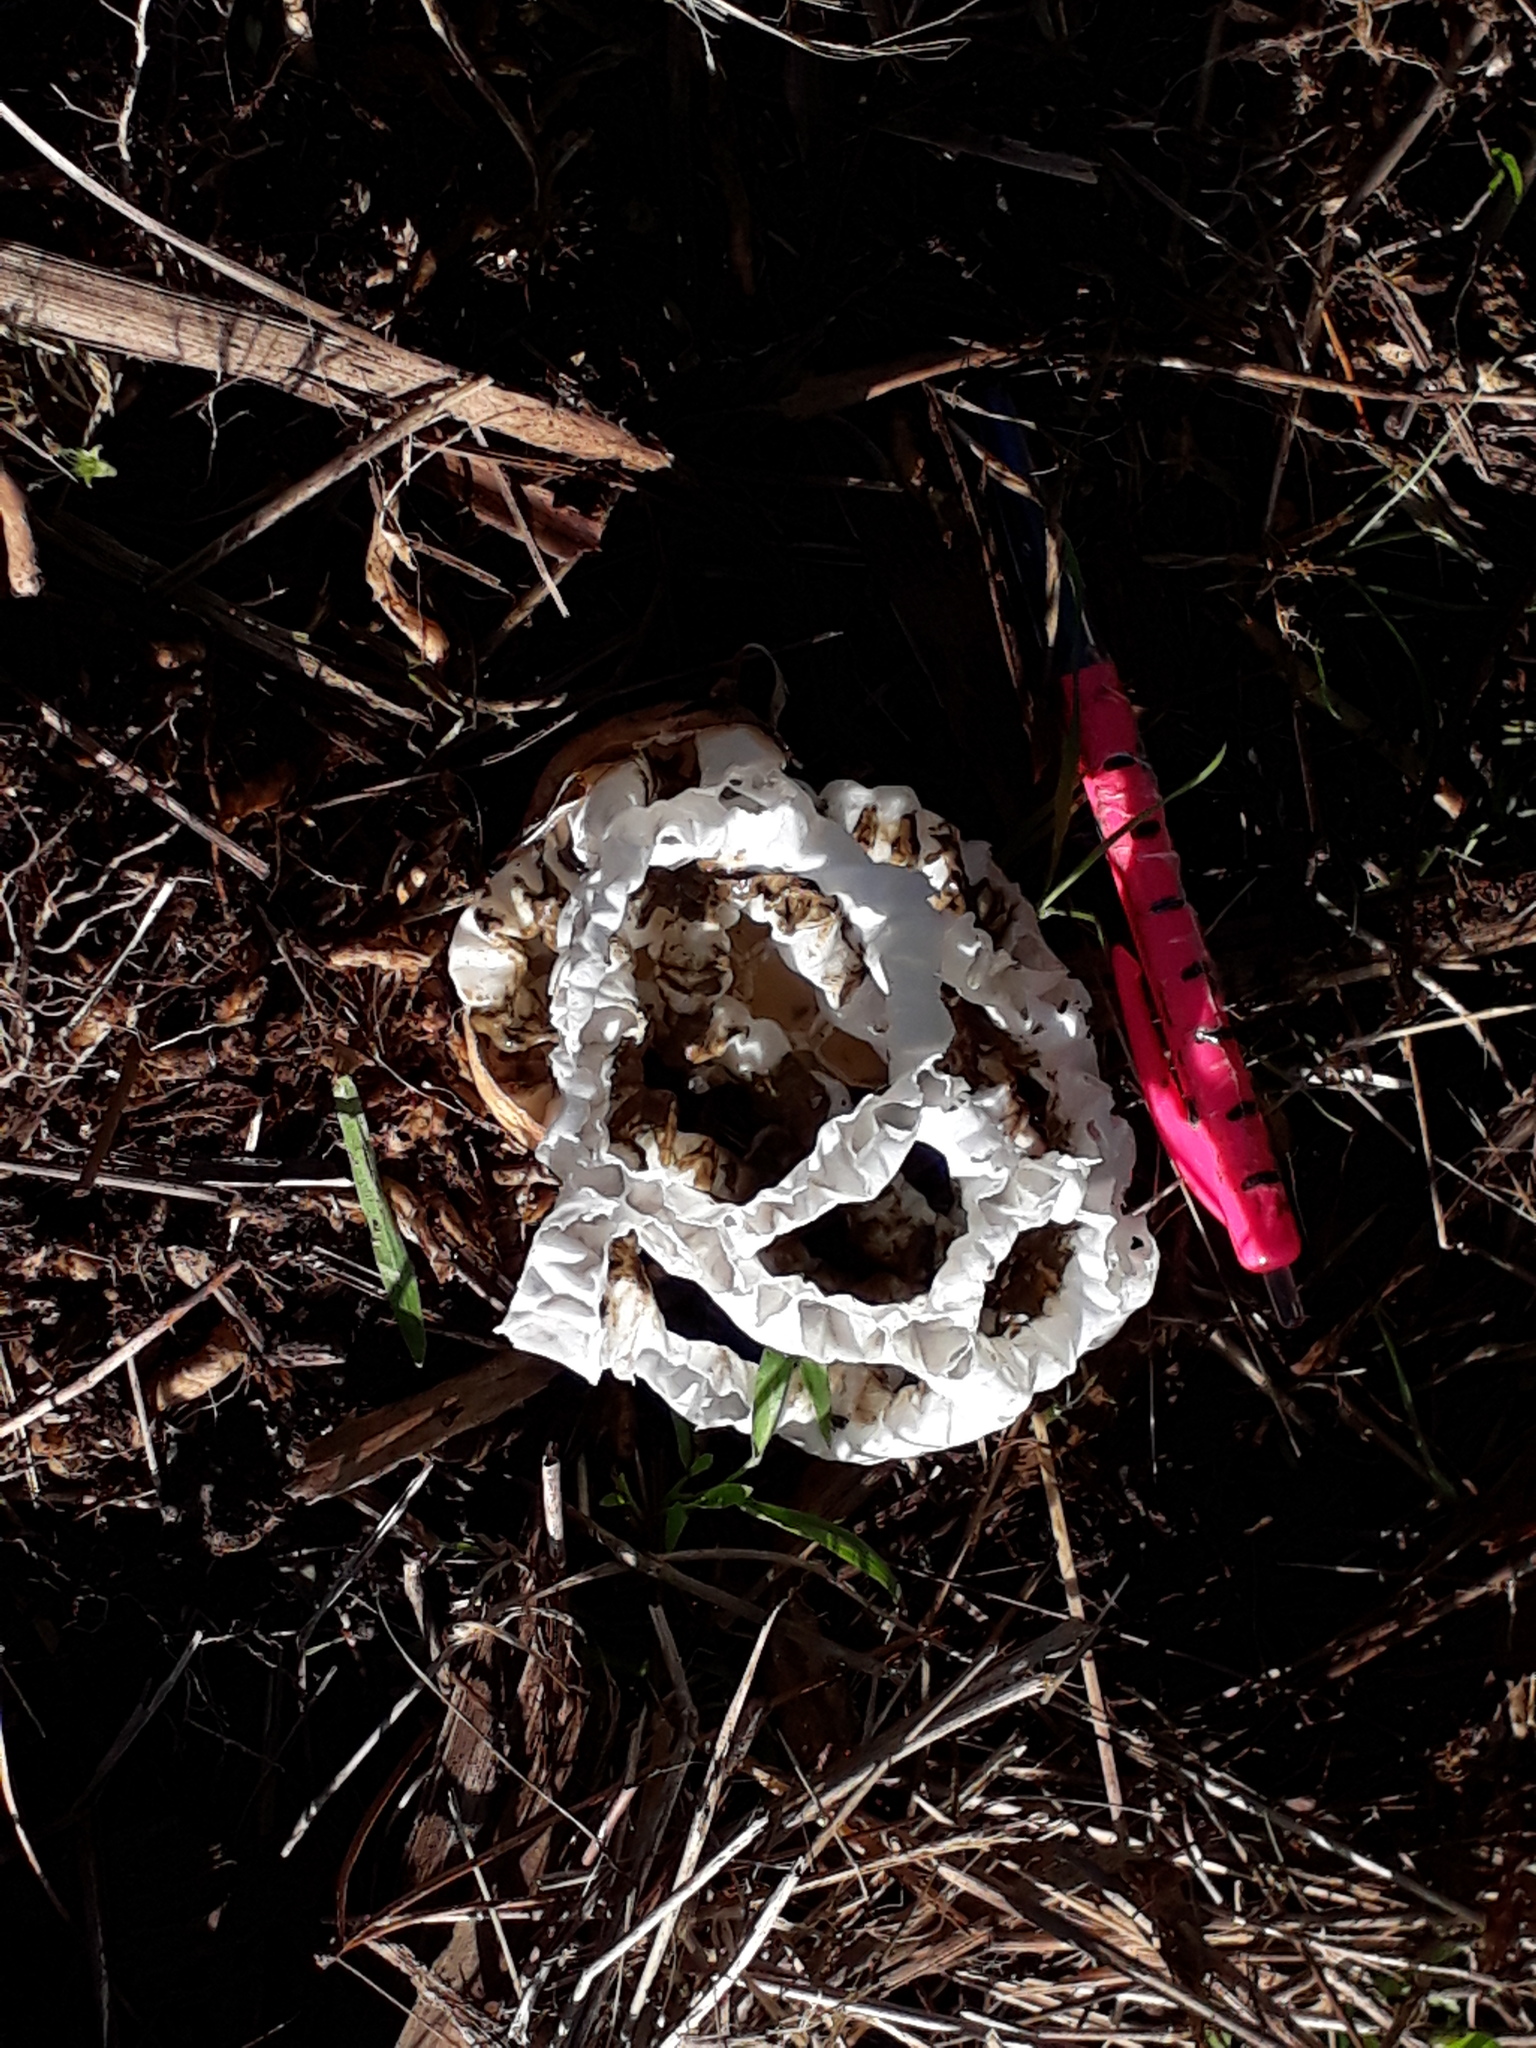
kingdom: Fungi
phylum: Basidiomycota
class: Agaricomycetes
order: Phallales
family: Phallaceae
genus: Ileodictyon
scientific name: Ileodictyon cibarium
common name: Basket fungus
